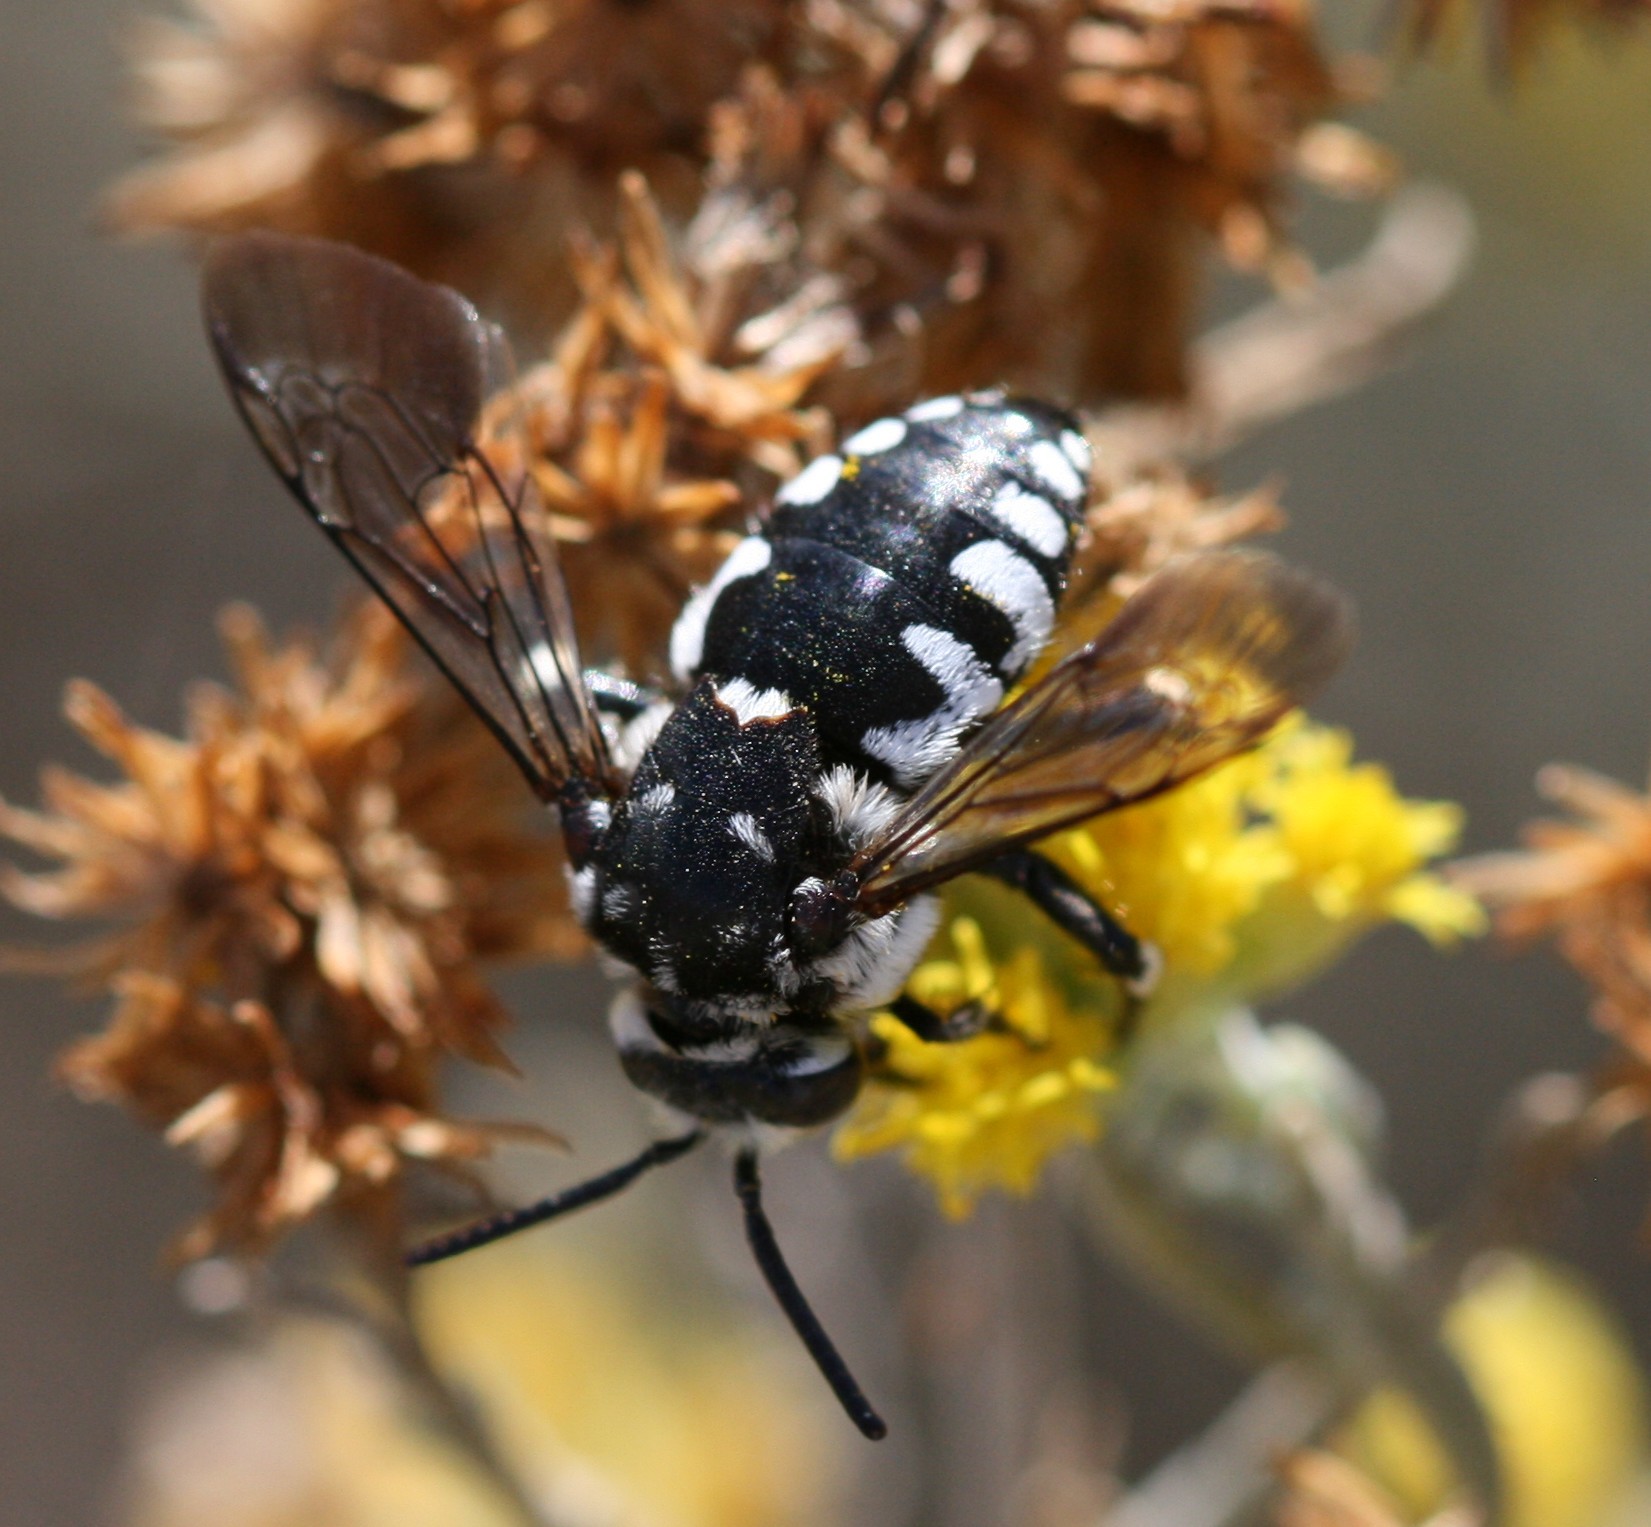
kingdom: Animalia
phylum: Arthropoda
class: Insecta
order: Hymenoptera
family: Apidae
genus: Thyreus
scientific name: Thyreus histrionicus
